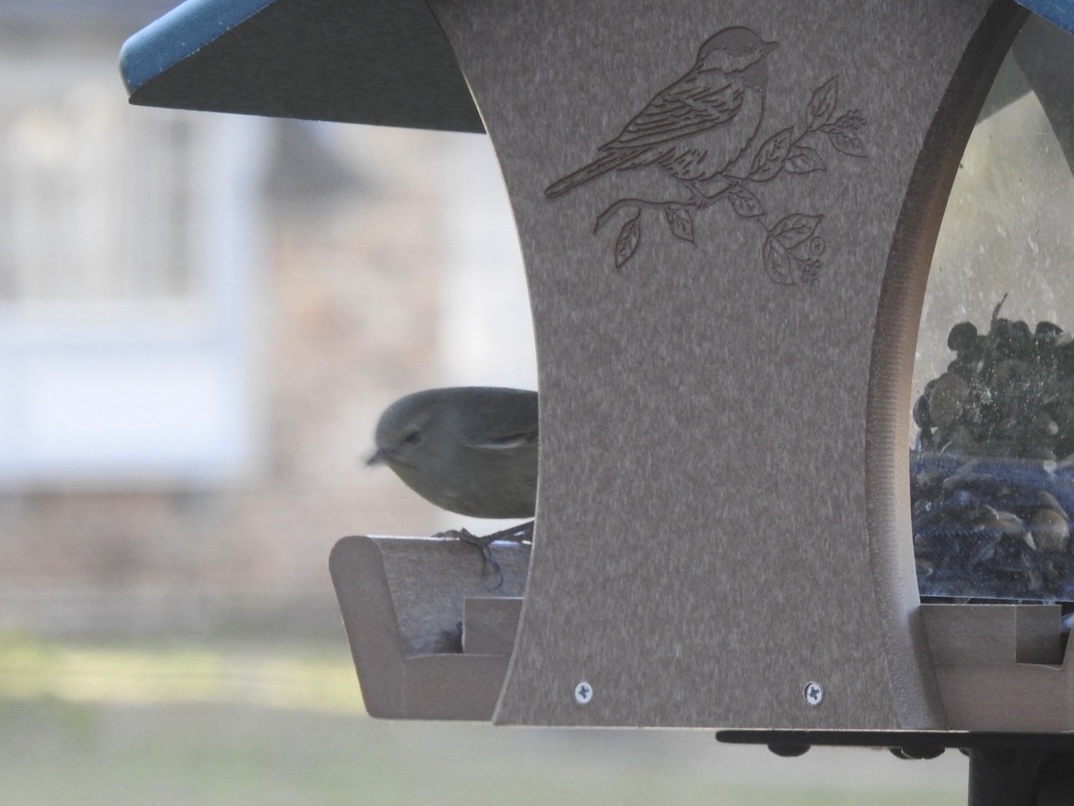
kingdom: Animalia
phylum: Chordata
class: Aves
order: Passeriformes
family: Parulidae
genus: Leiothlypis
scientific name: Leiothlypis celata
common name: Orange-crowned warbler
